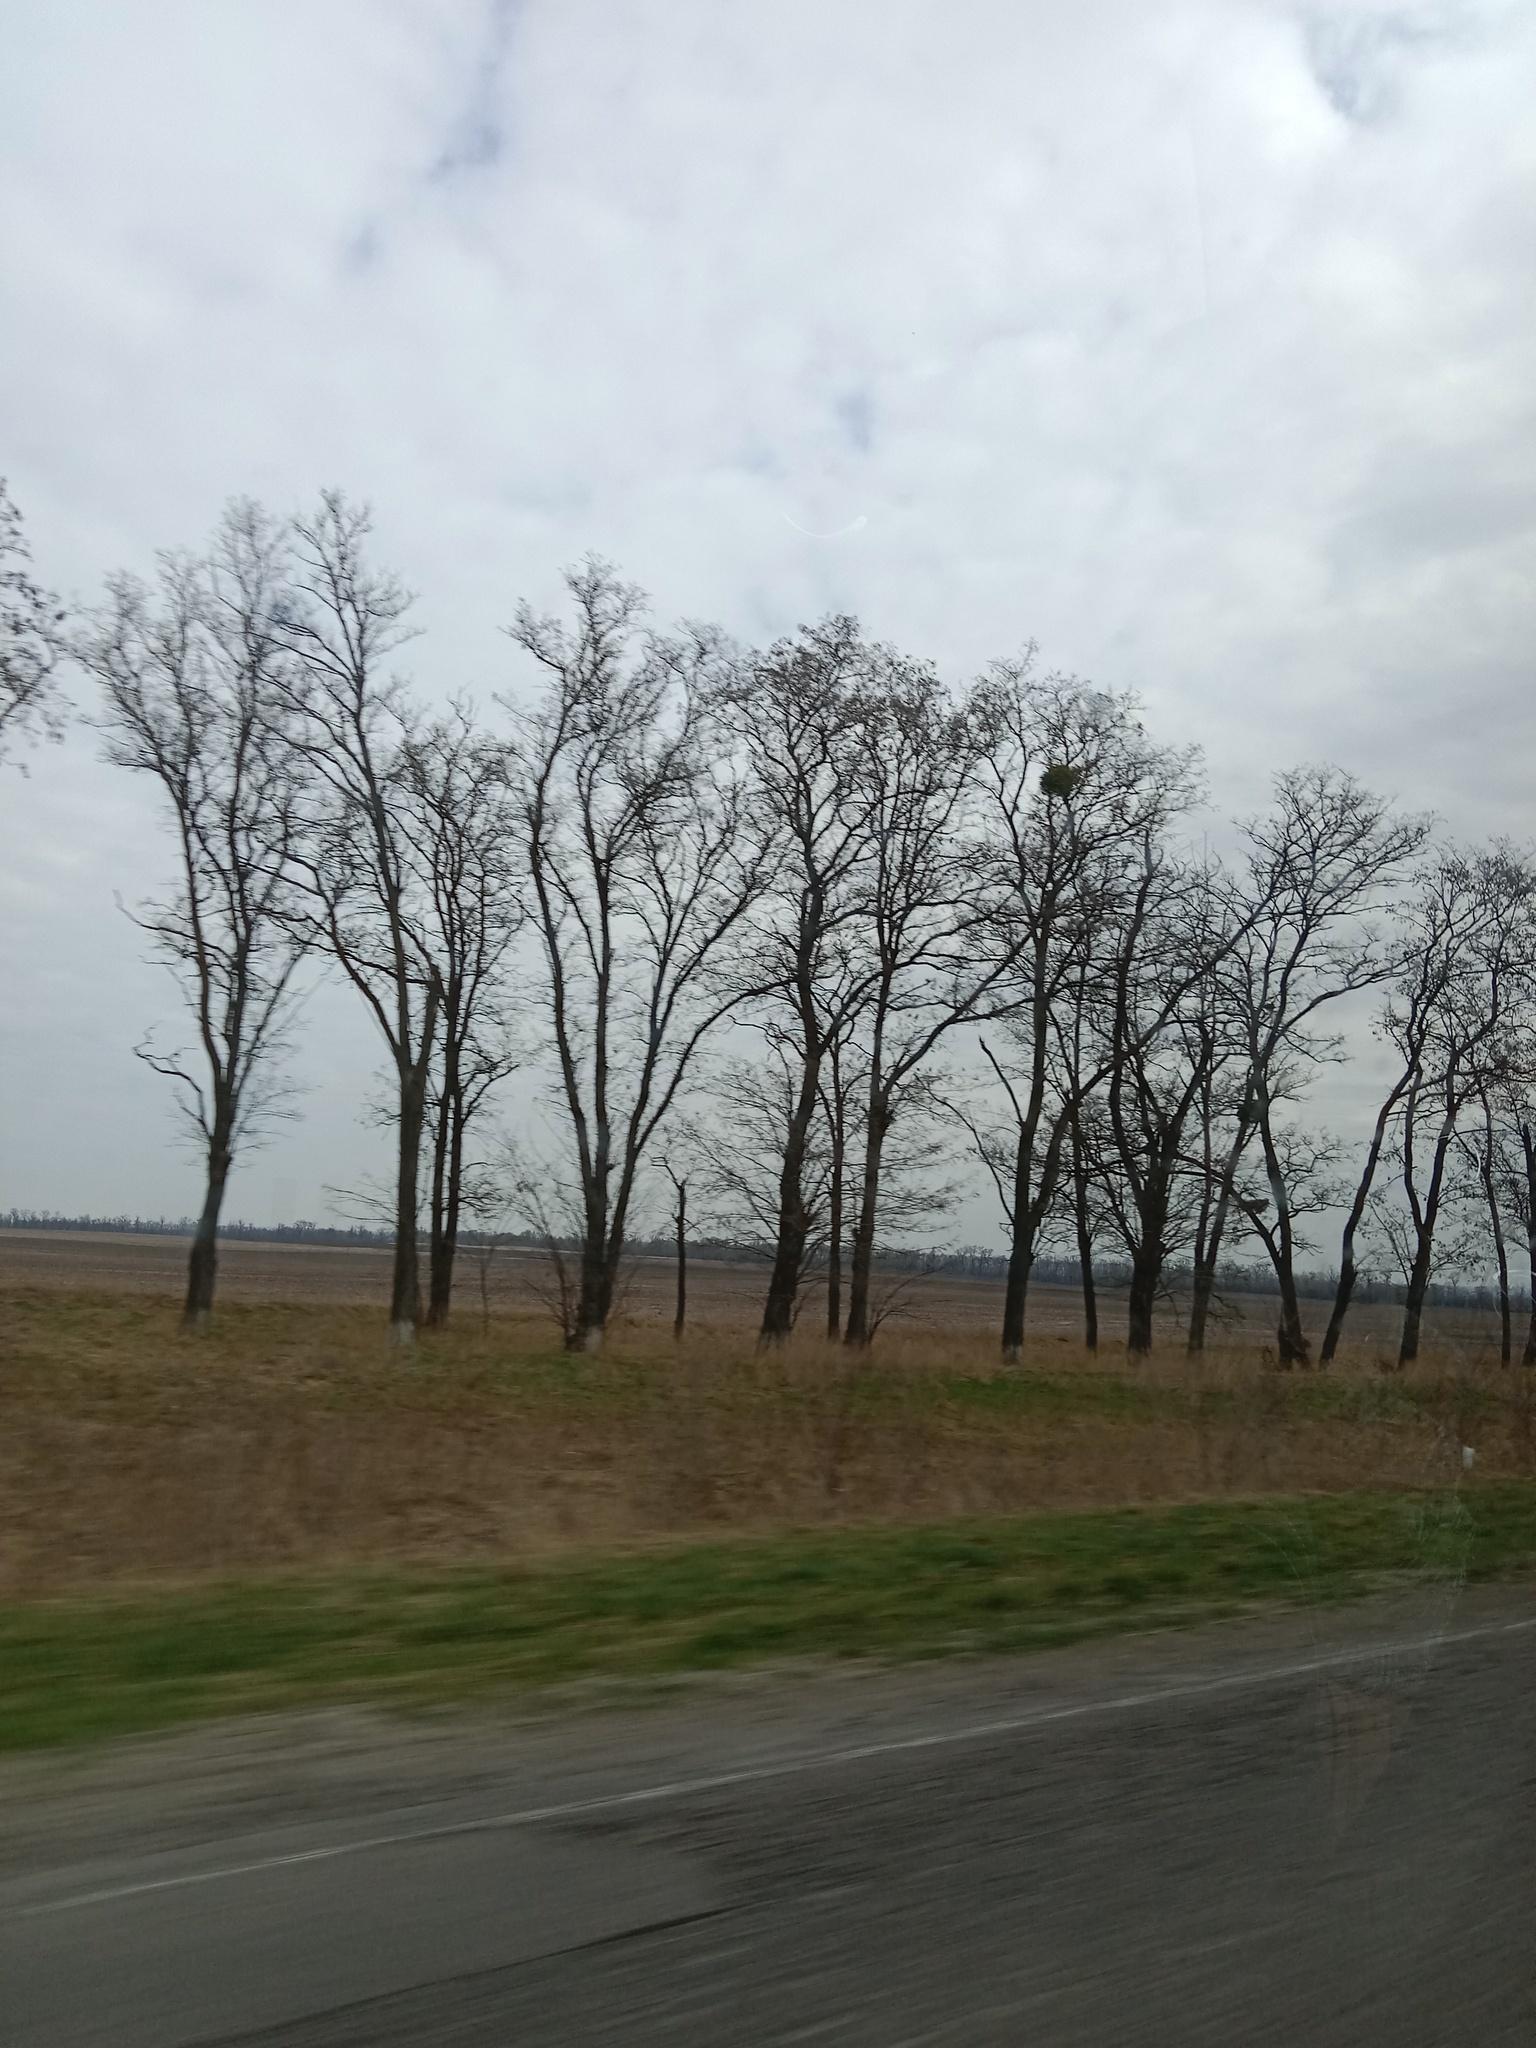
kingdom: Plantae
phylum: Tracheophyta
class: Magnoliopsida
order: Santalales
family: Viscaceae
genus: Viscum
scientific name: Viscum album
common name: Mistletoe
